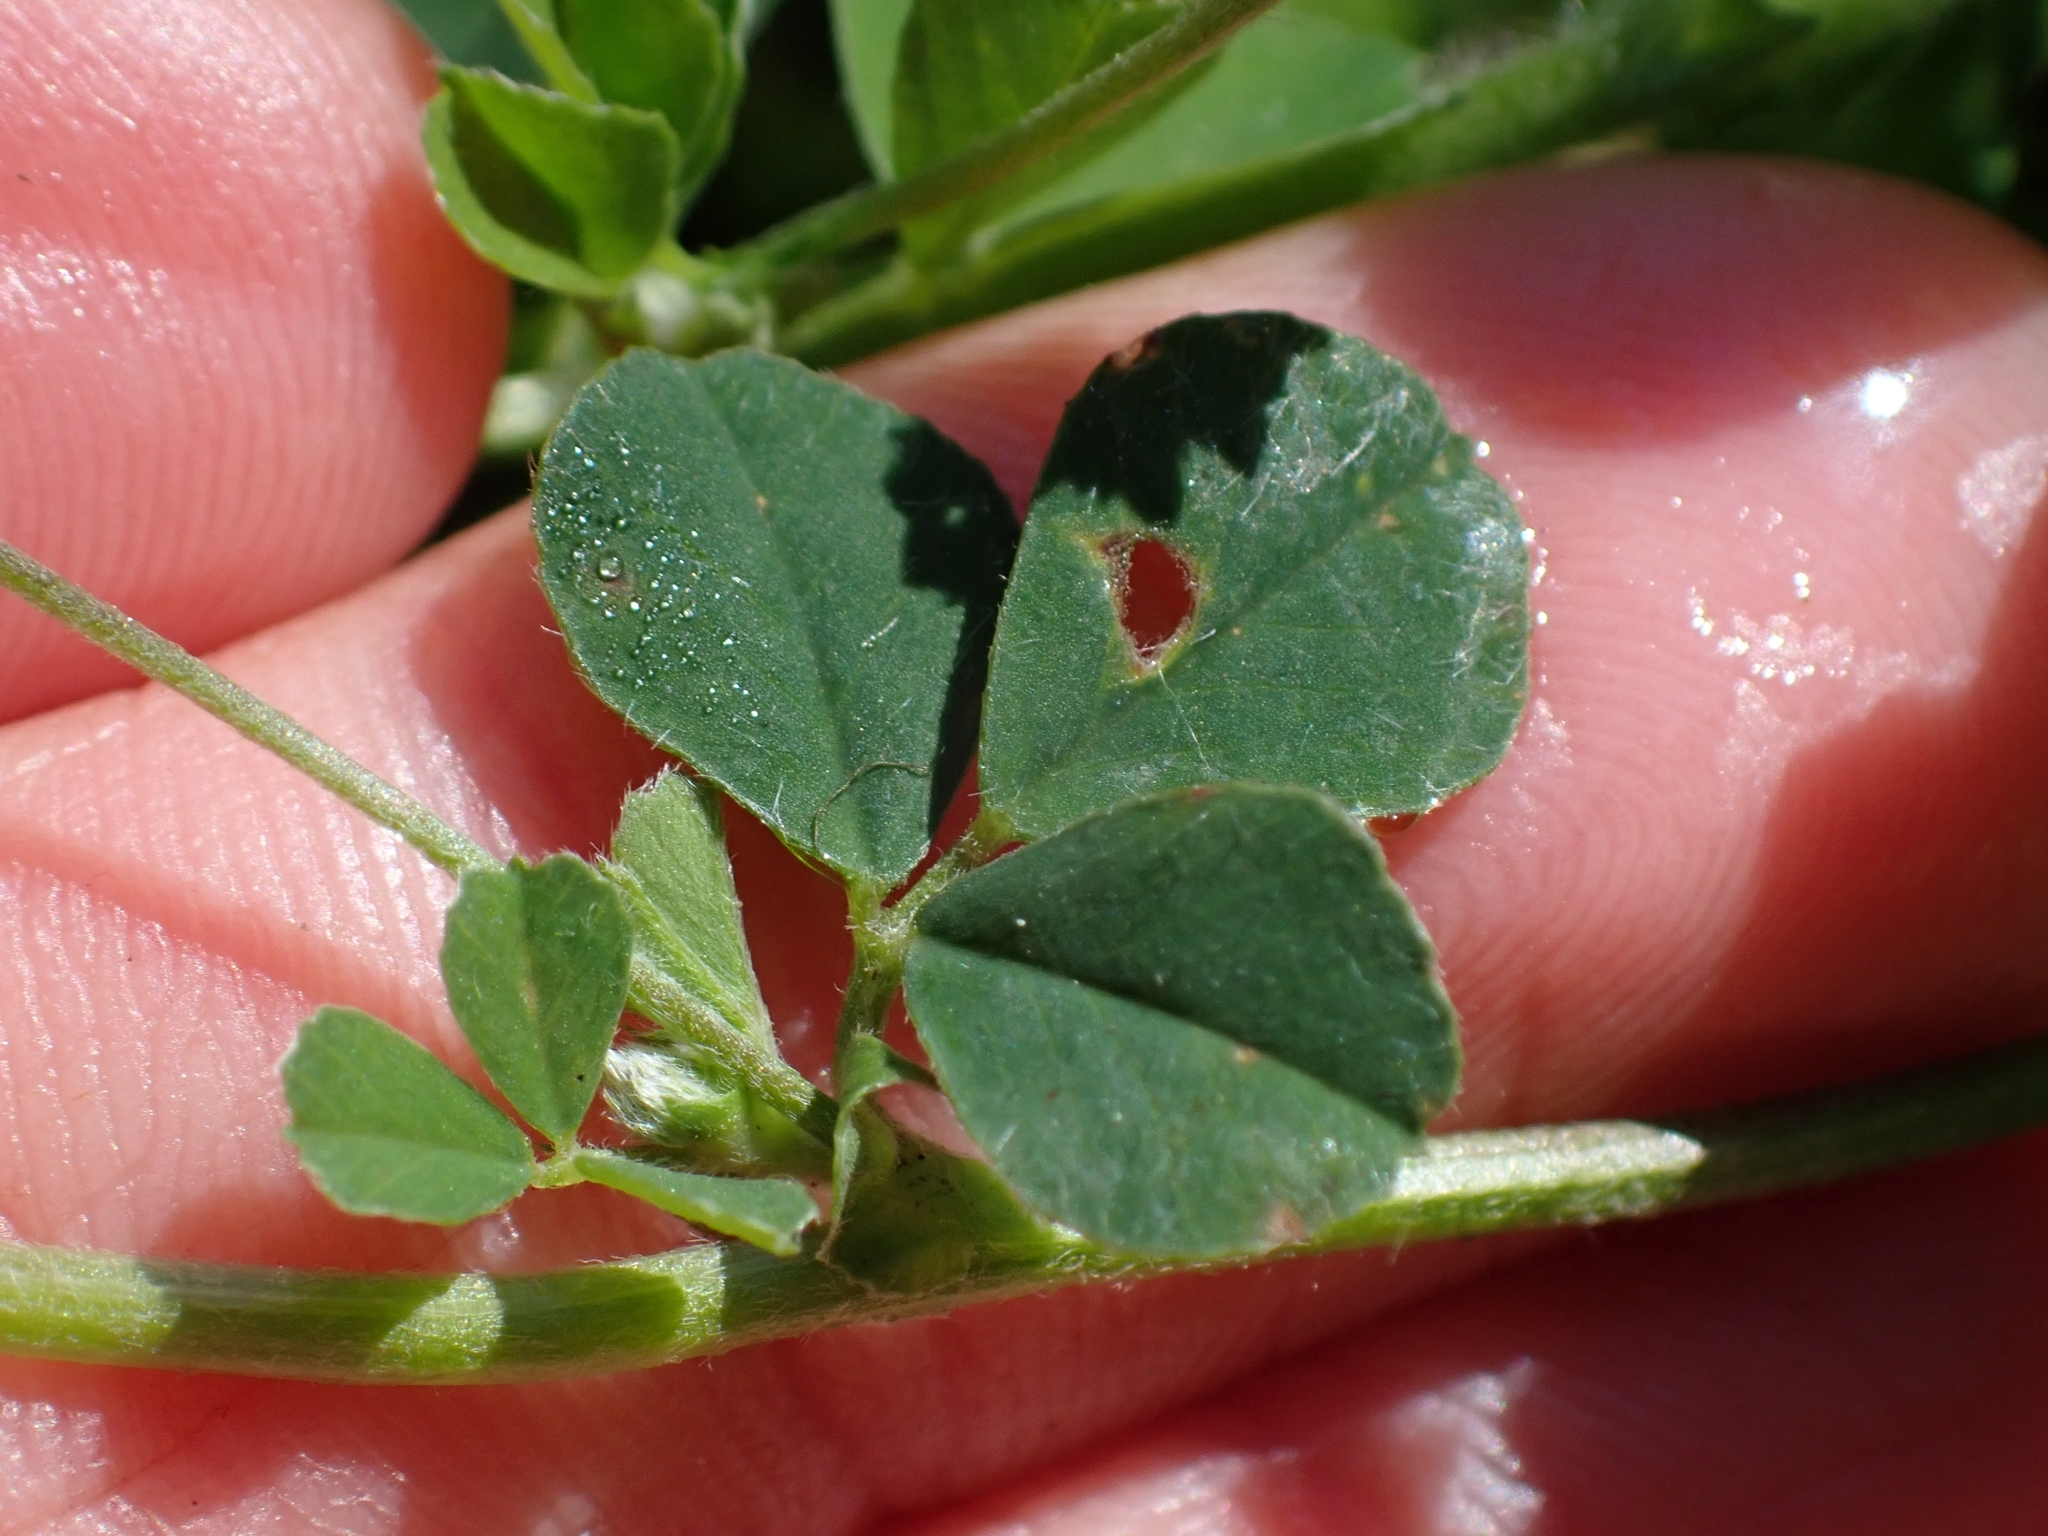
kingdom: Plantae
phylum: Tracheophyta
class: Magnoliopsida
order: Fabales
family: Fabaceae
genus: Medicago
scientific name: Medicago lupulina
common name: Black medick
